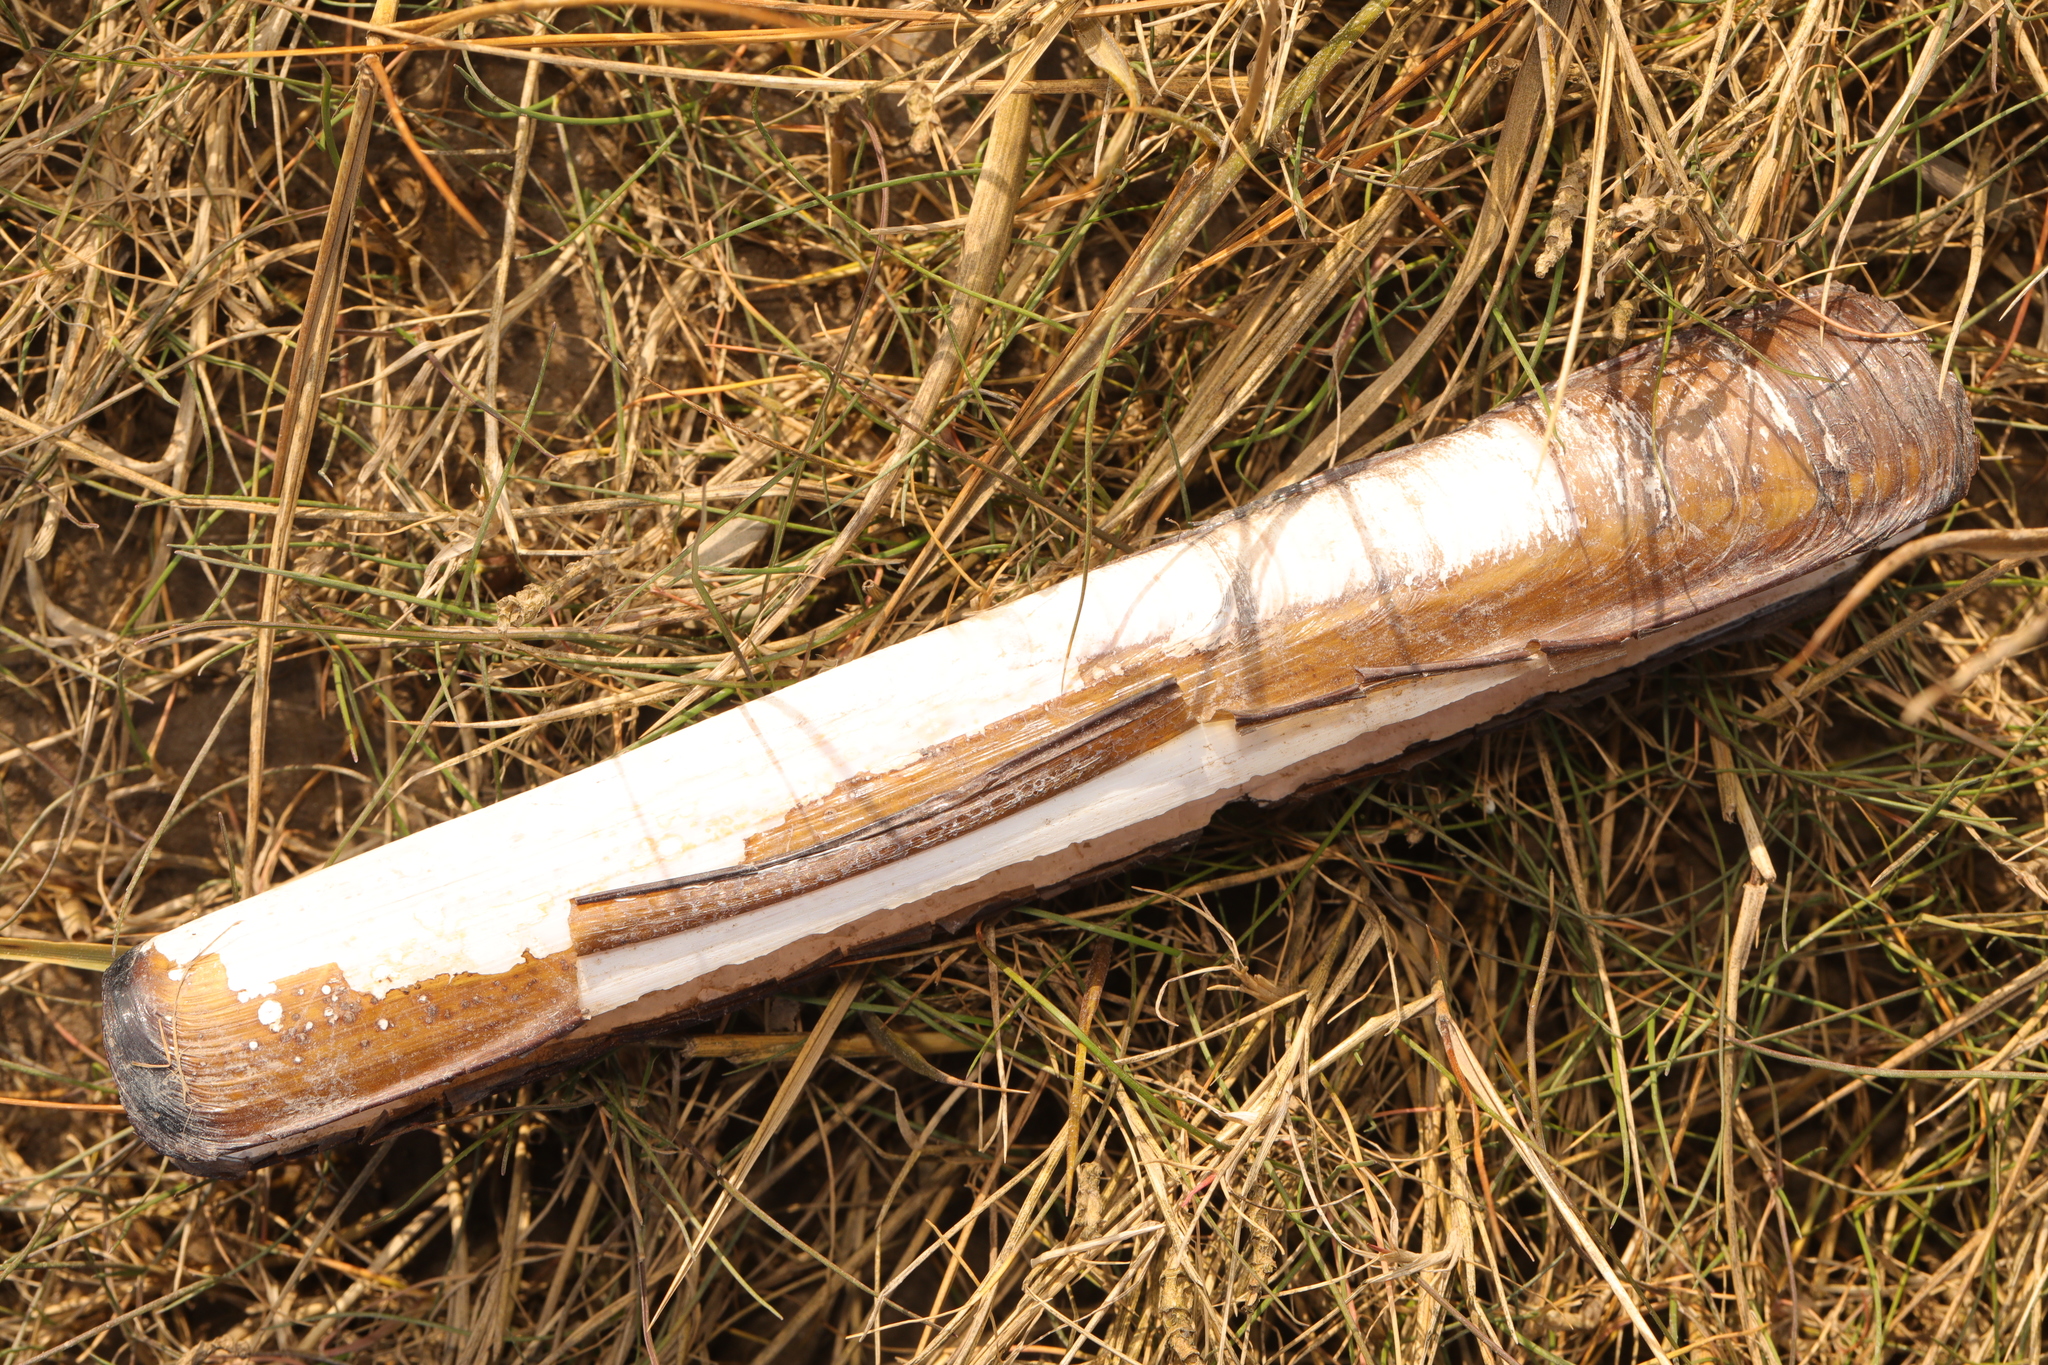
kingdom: Animalia
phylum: Mollusca
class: Bivalvia
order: Adapedonta
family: Pharidae
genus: Ensis
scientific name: Ensis siliqua
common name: Pod razor shell
